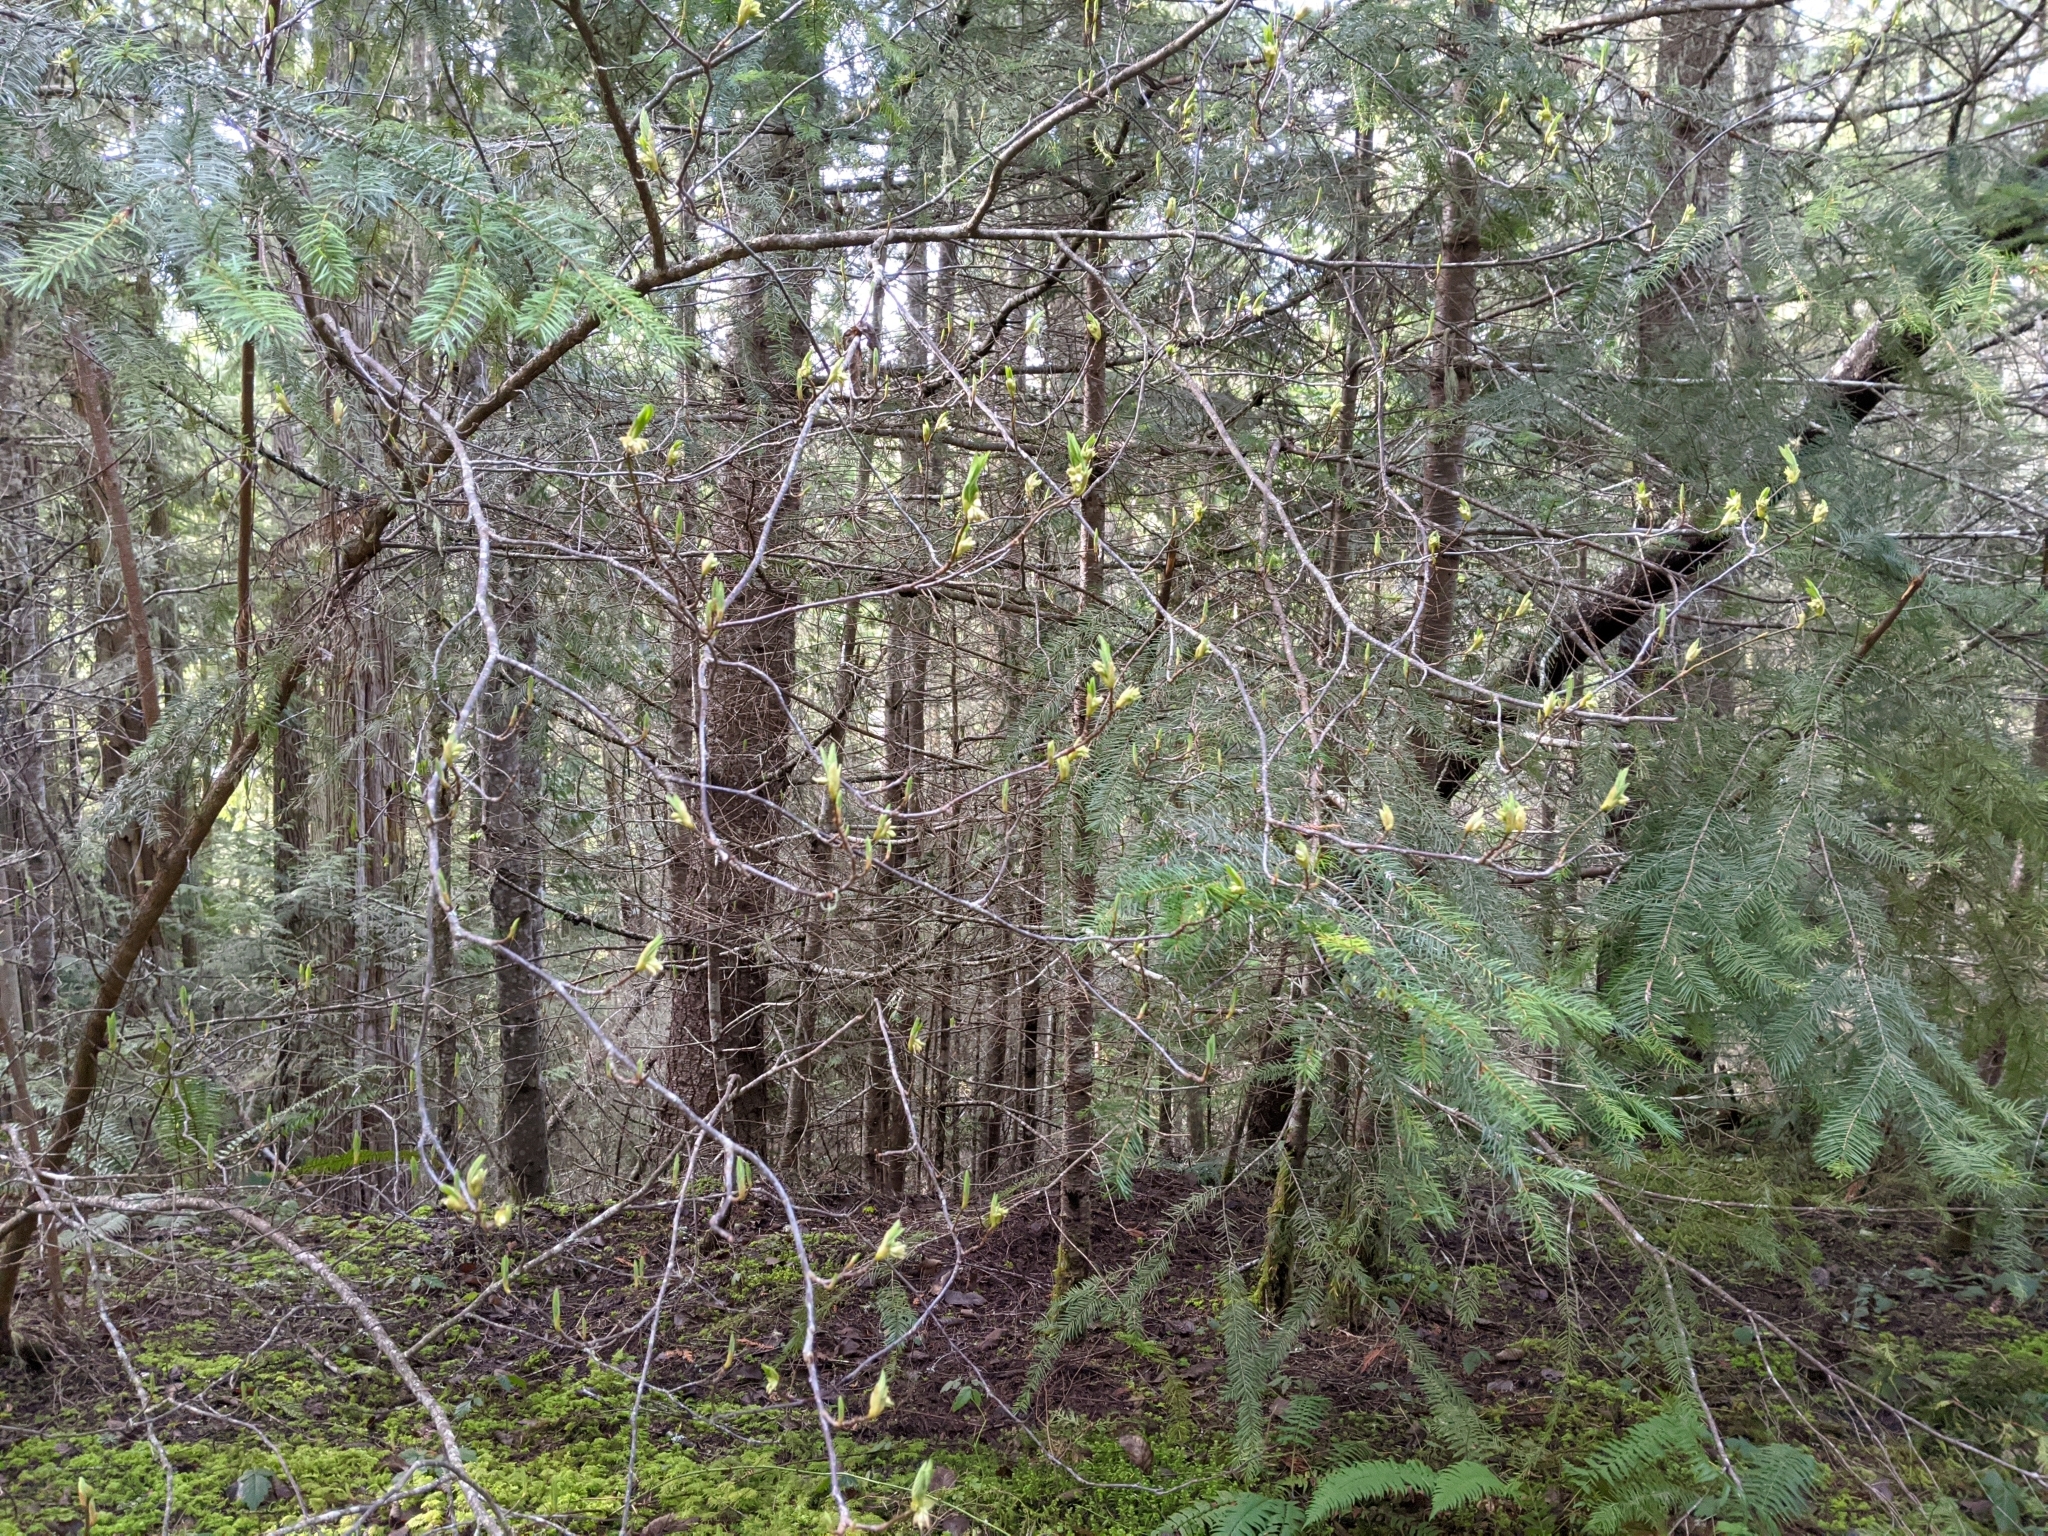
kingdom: Plantae
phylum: Tracheophyta
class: Magnoliopsida
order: Rosales
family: Rosaceae
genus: Oemleria
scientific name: Oemleria cerasiformis
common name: Osoberry
